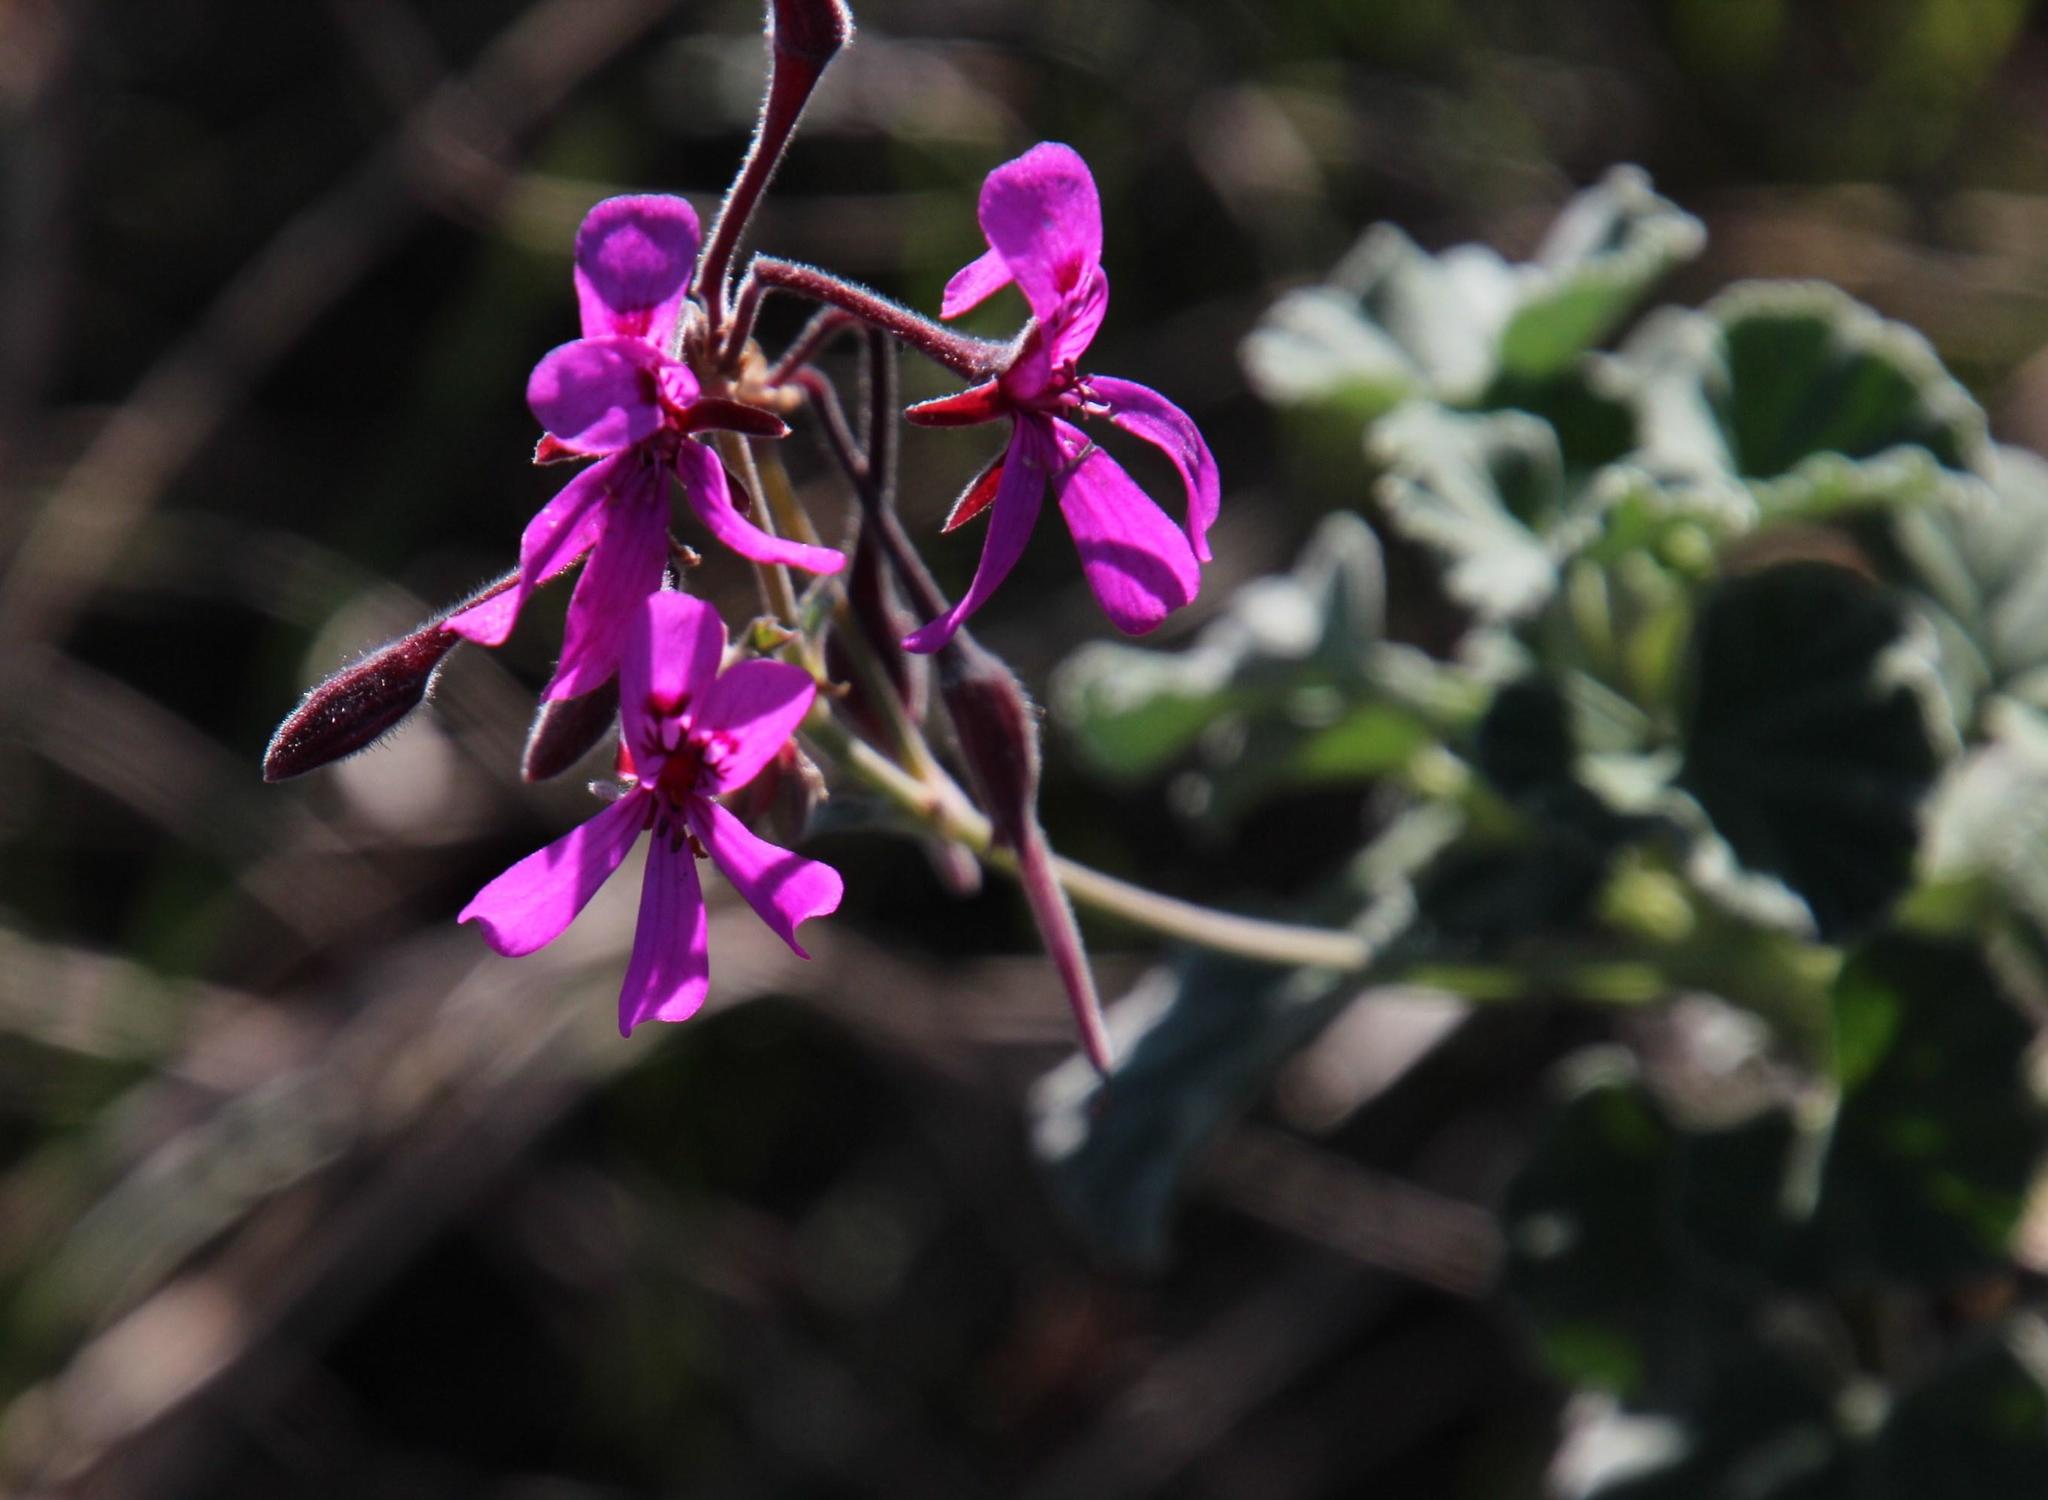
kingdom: Plantae
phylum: Tracheophyta
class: Magnoliopsida
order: Geraniales
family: Geraniaceae
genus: Pelargonium
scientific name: Pelargonium reniforme
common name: Kidney-leaf pelargonium
